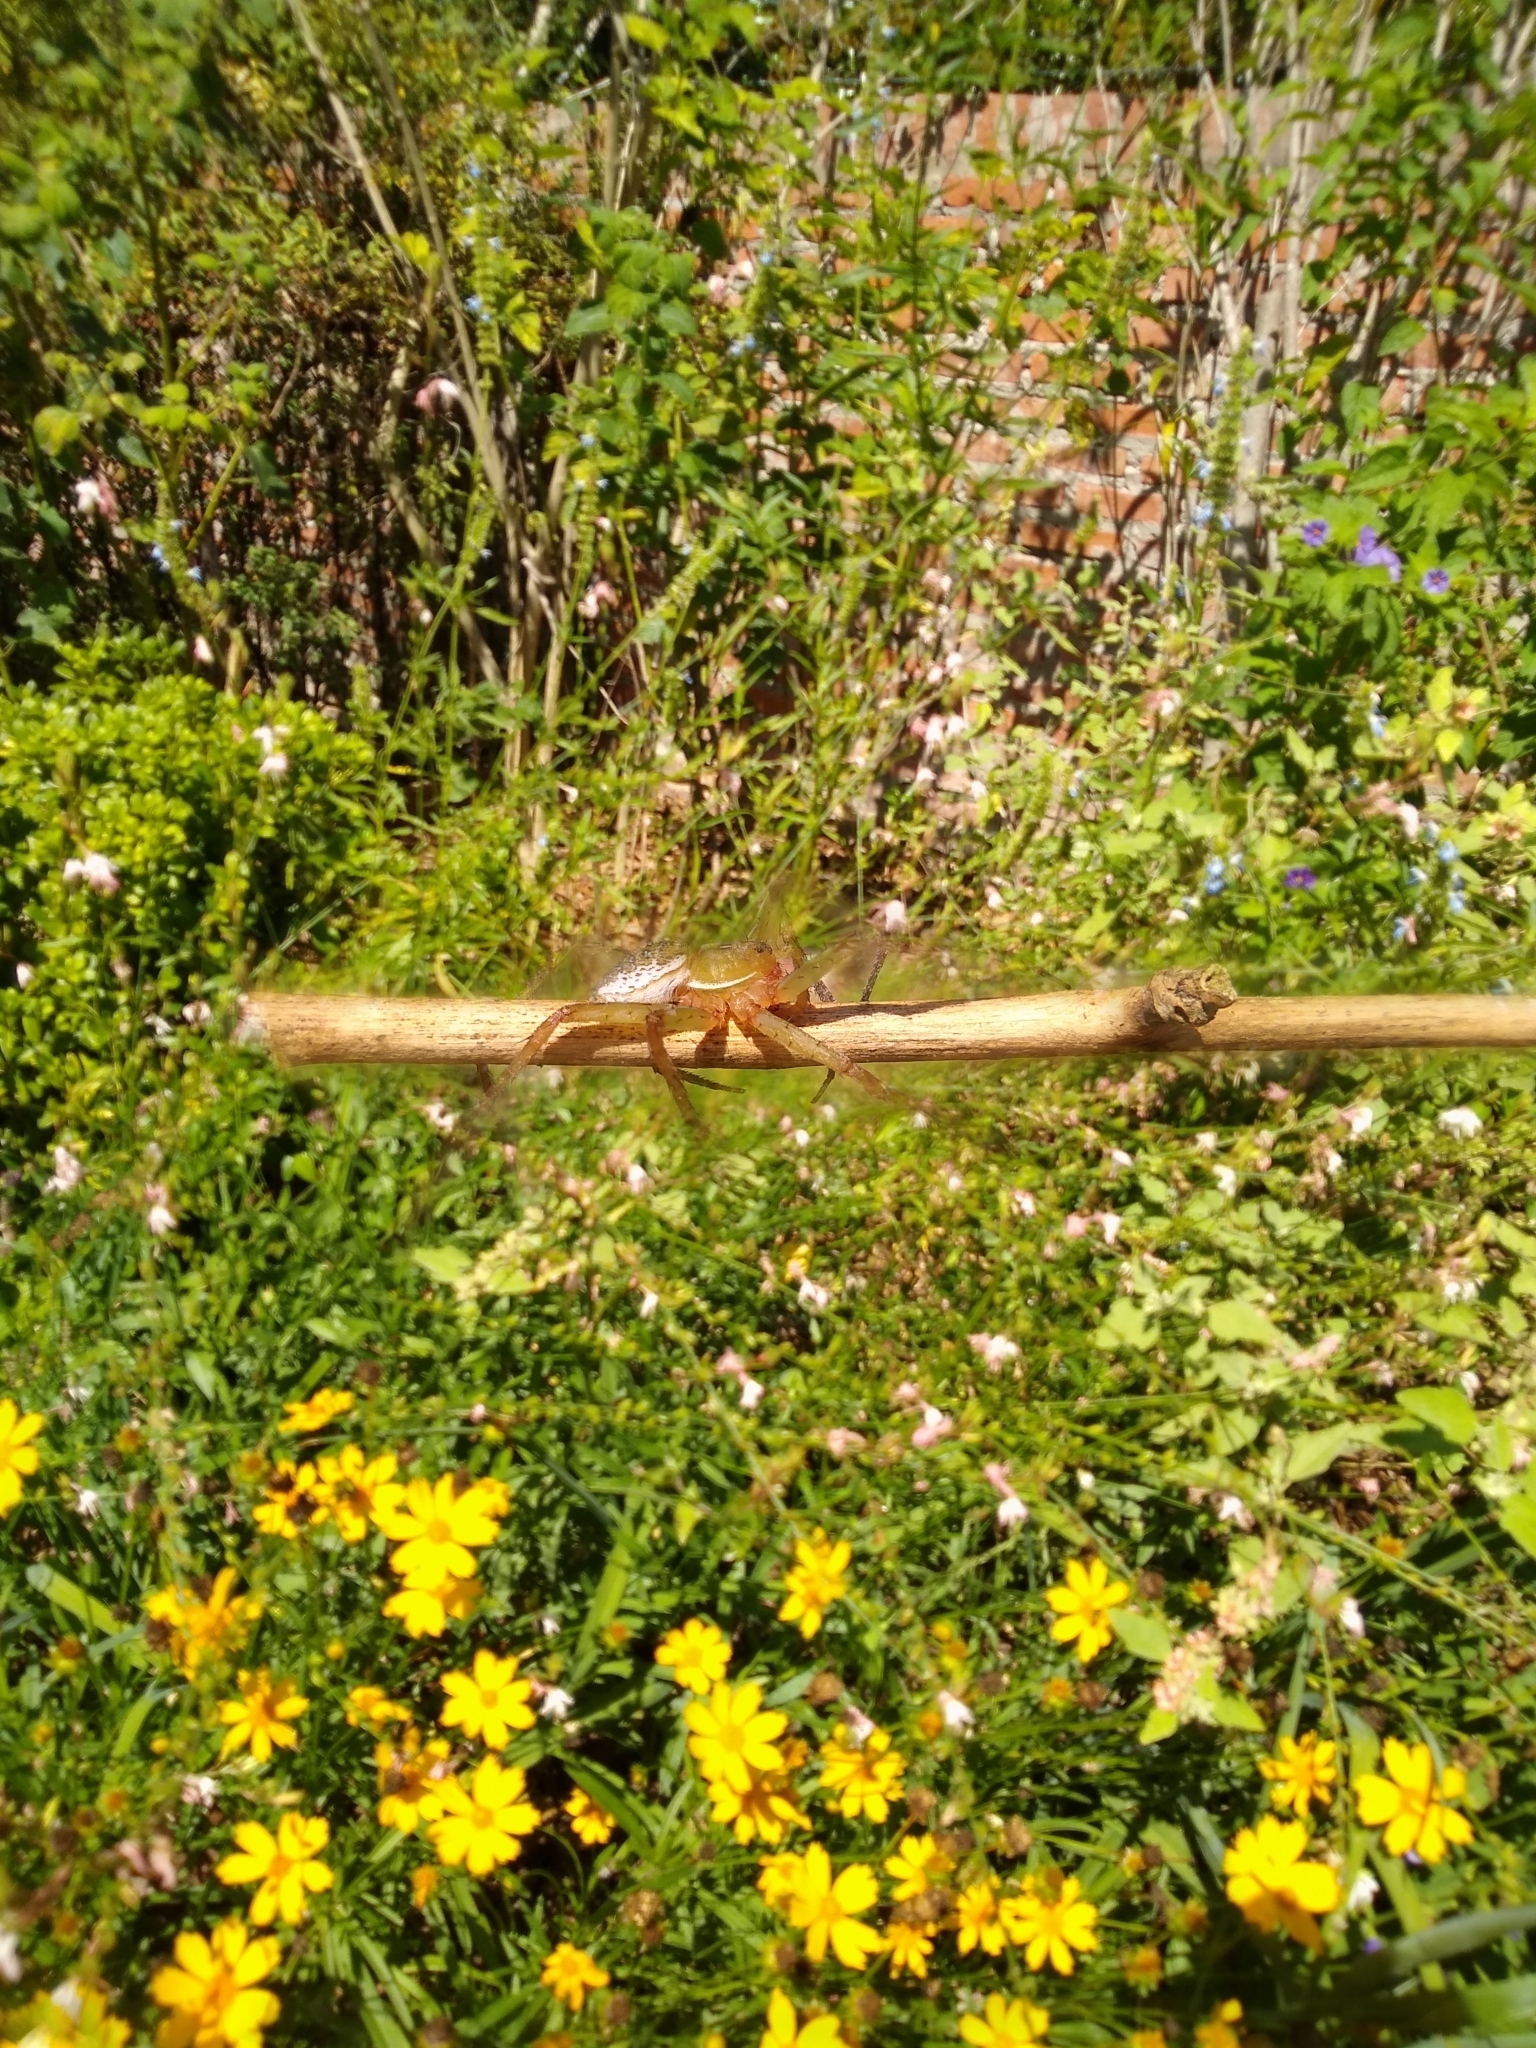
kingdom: Animalia
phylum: Arthropoda
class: Arachnida
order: Araneae
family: Pisauridae
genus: Thaumasia
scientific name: Thaumasia velox
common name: Nursery web spiders
